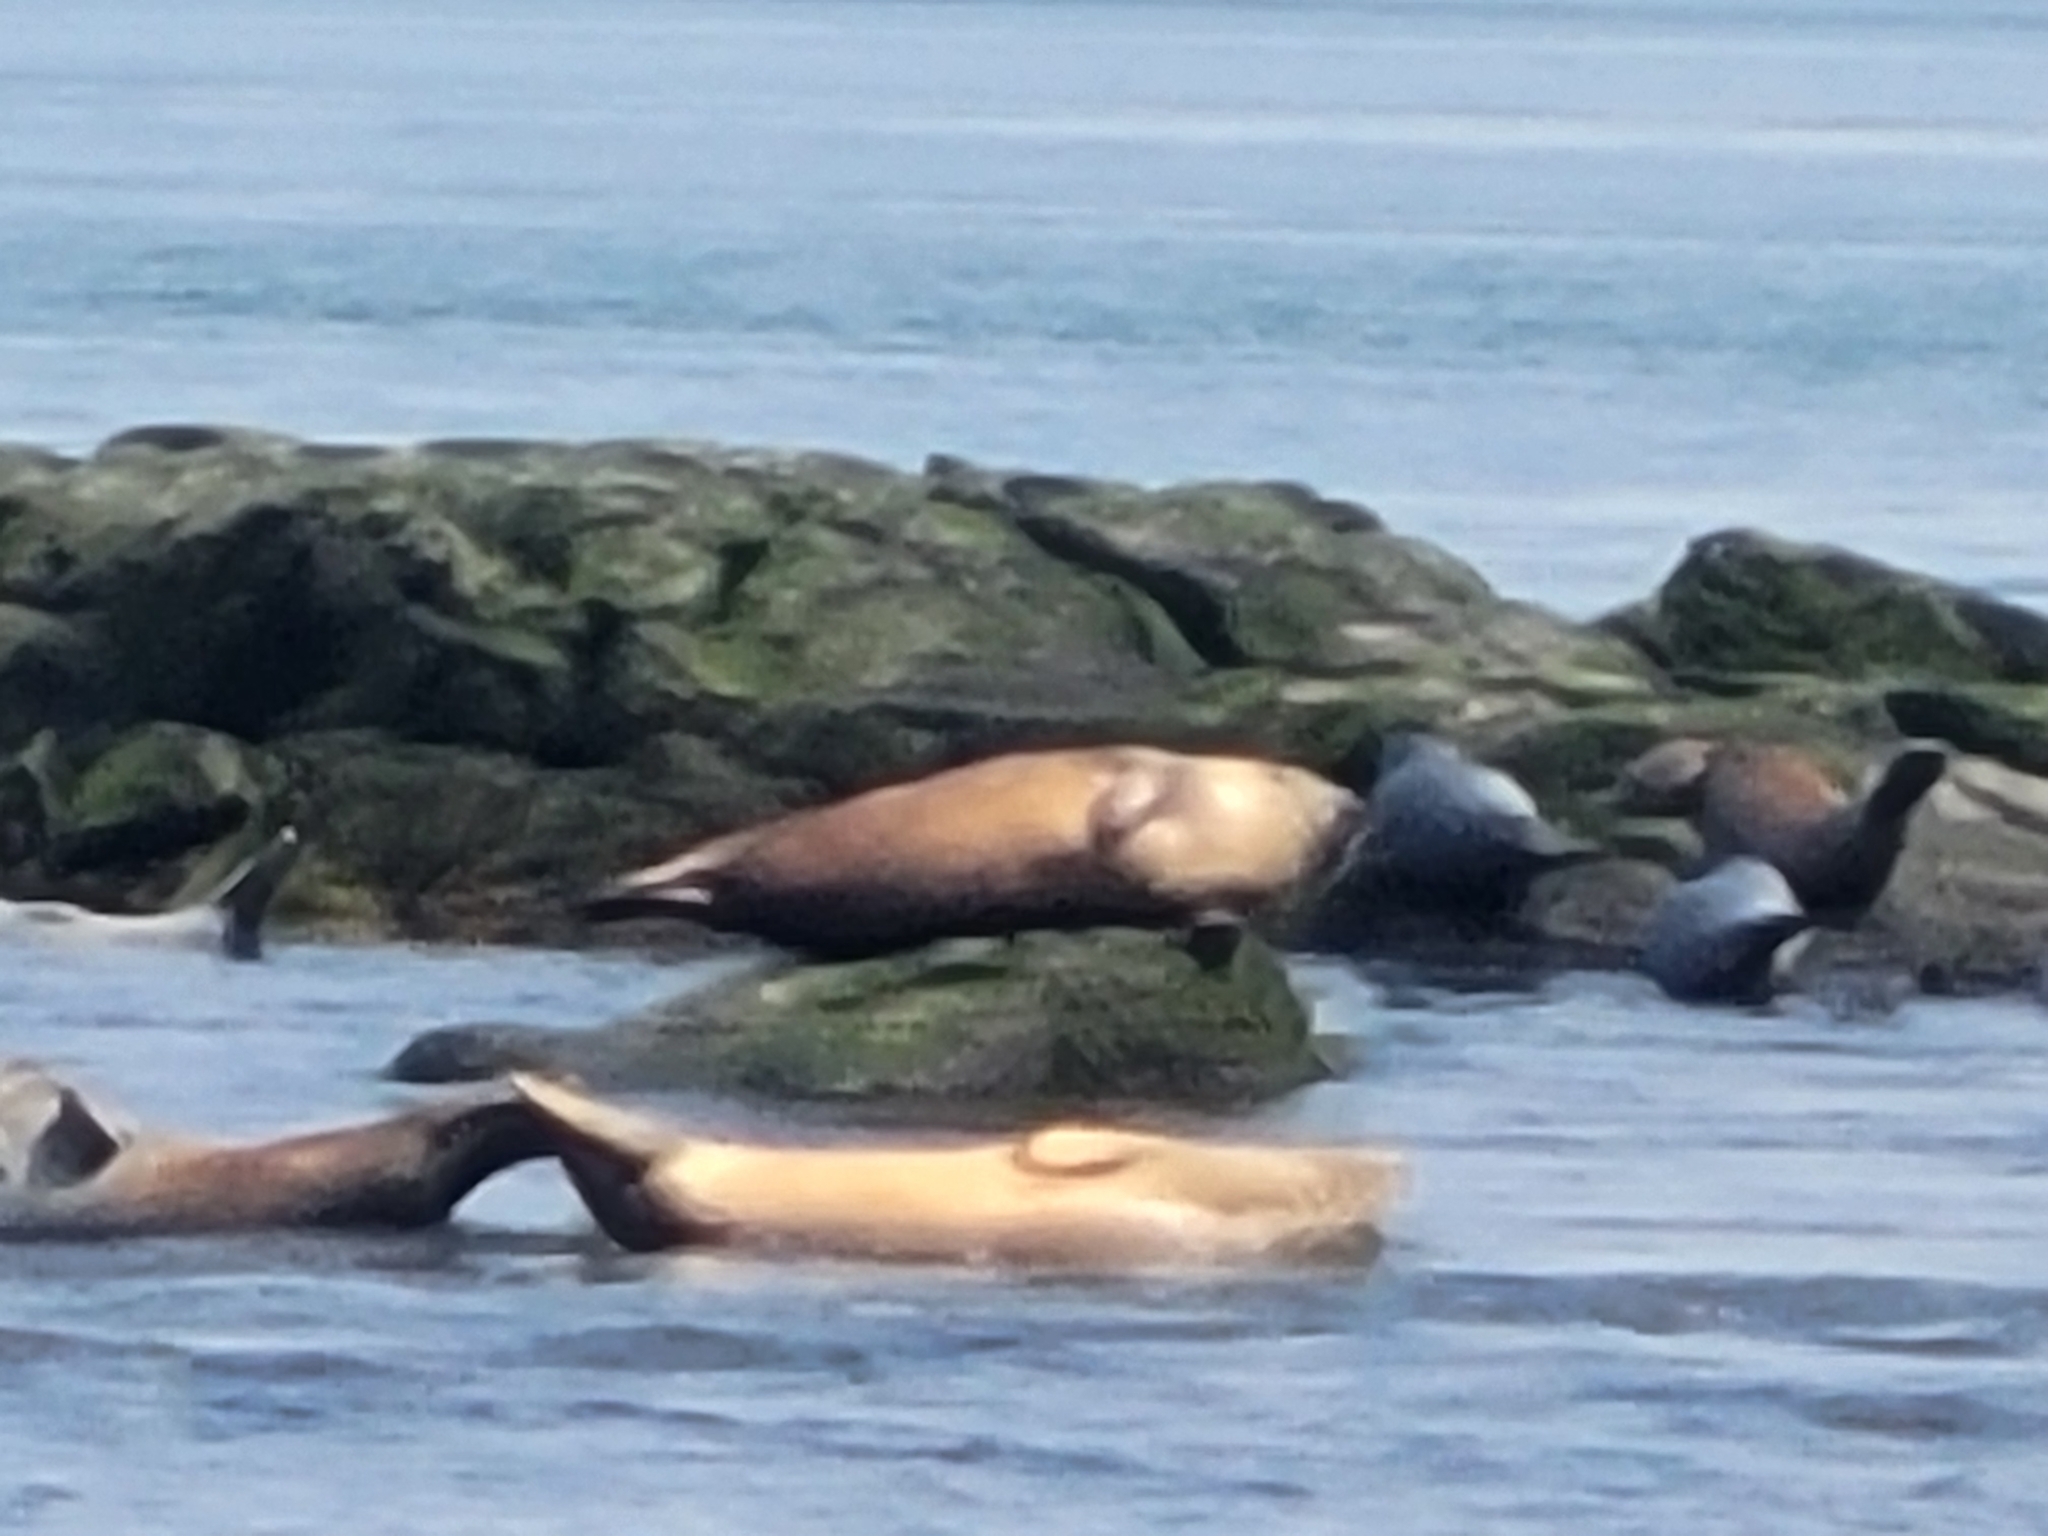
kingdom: Animalia
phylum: Chordata
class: Mammalia
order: Carnivora
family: Phocidae
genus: Phoca
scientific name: Phoca vitulina
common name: Harbor seal
